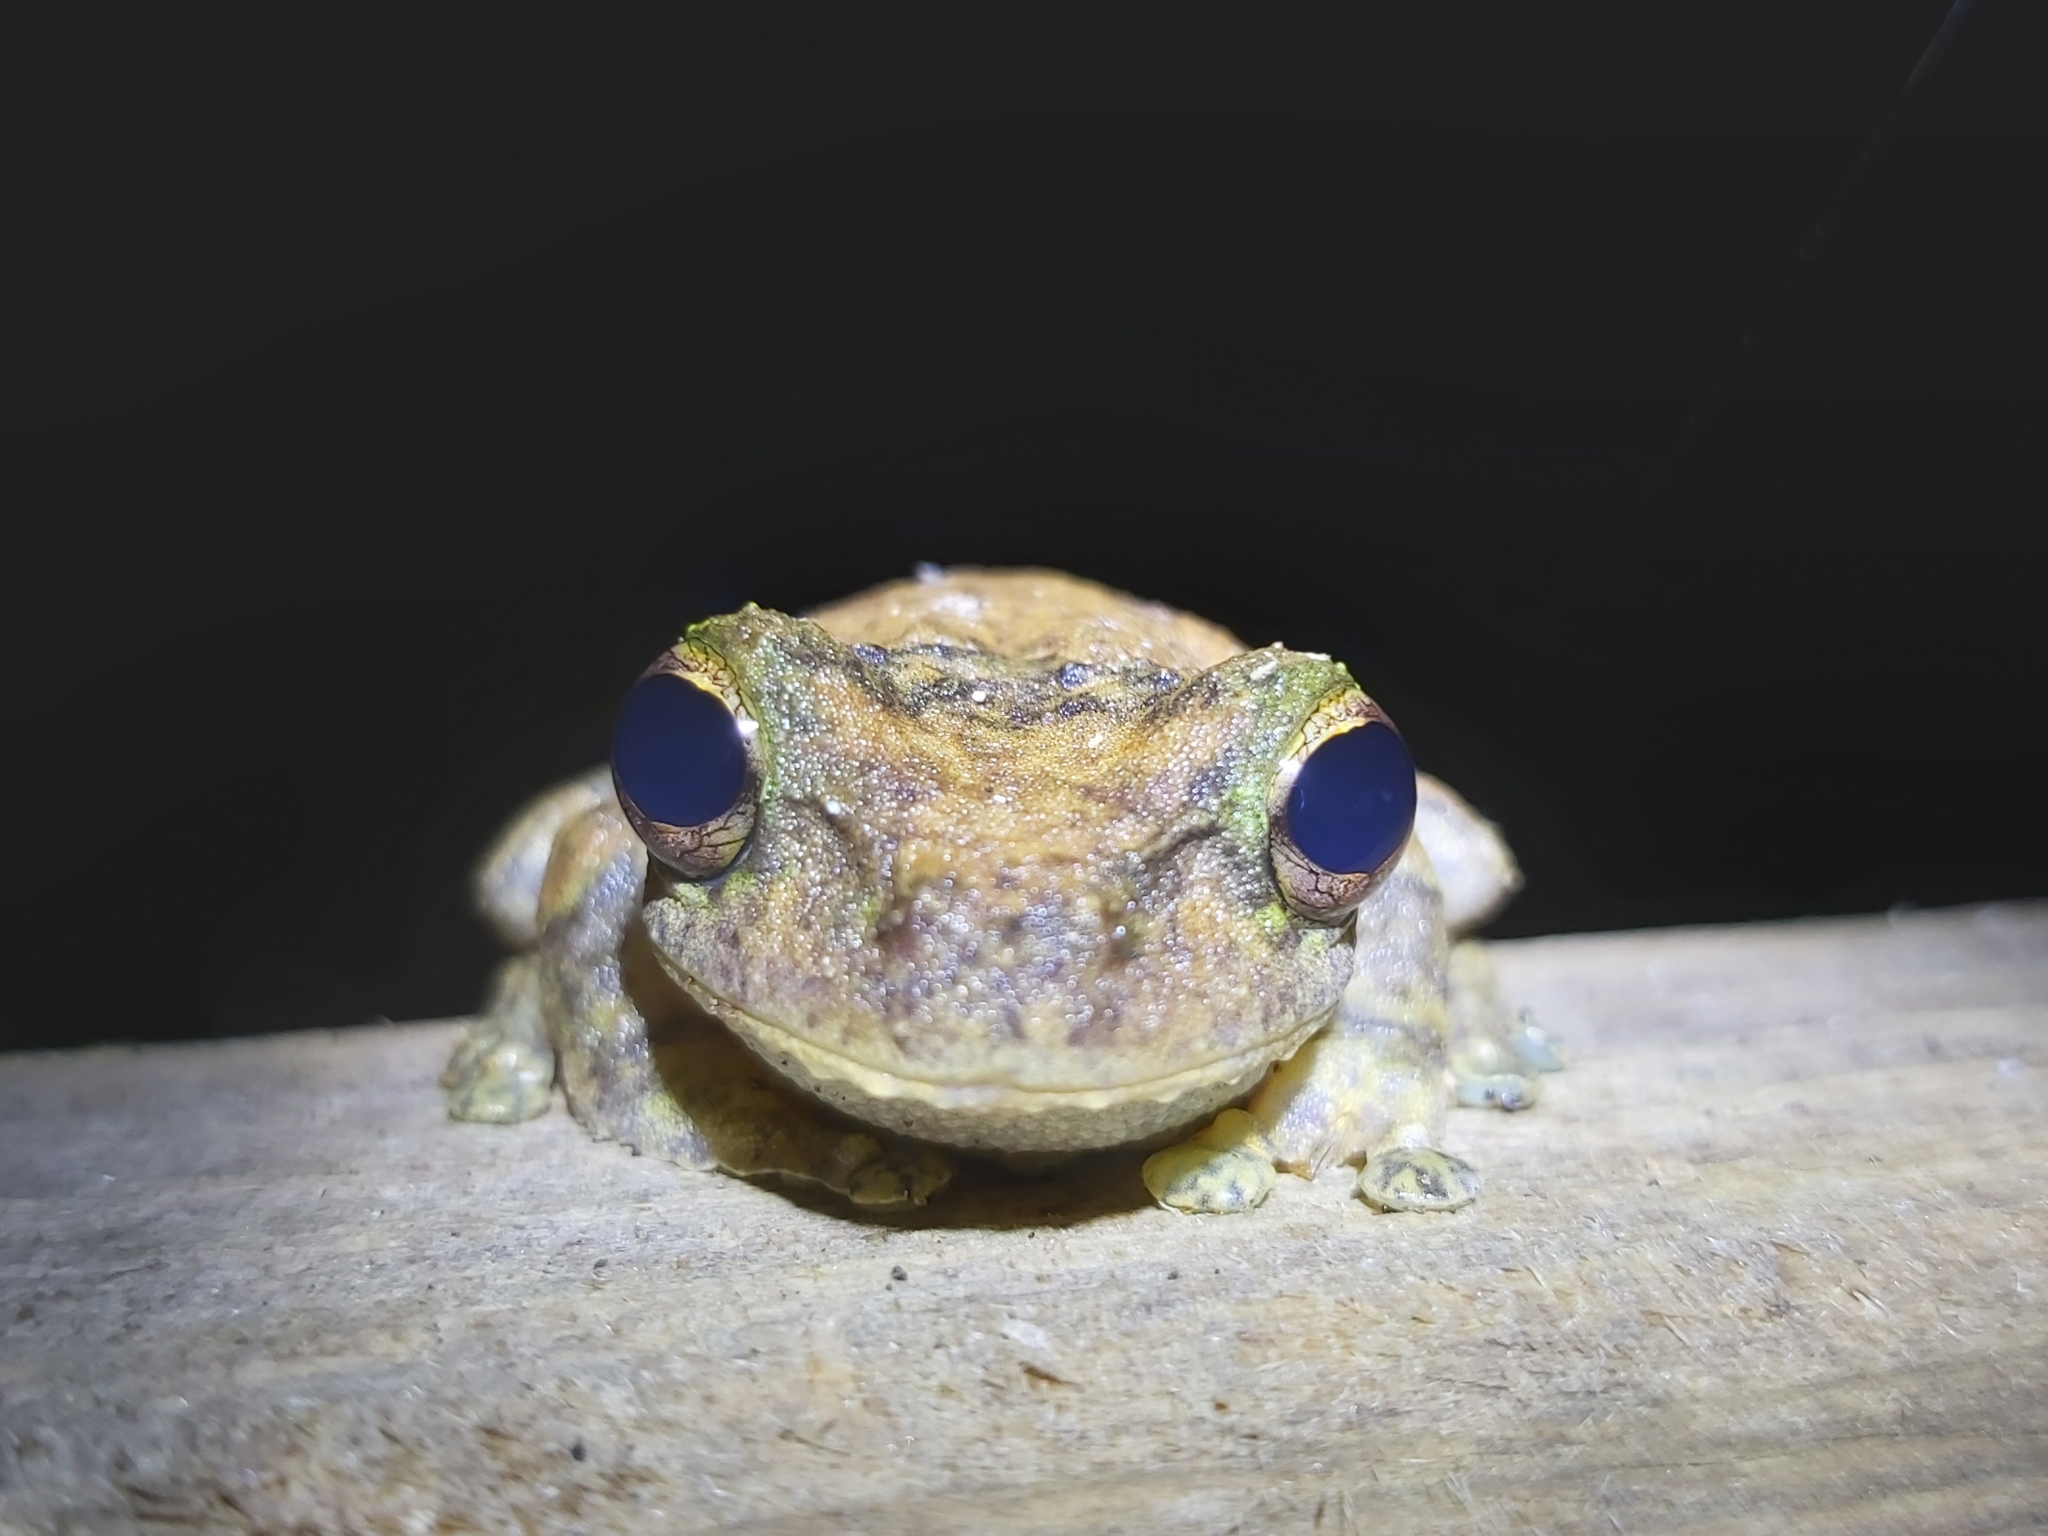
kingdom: Animalia
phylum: Chordata
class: Amphibia
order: Anura
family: Pelodryadidae
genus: Ranoidea
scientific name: Ranoidea serrata
